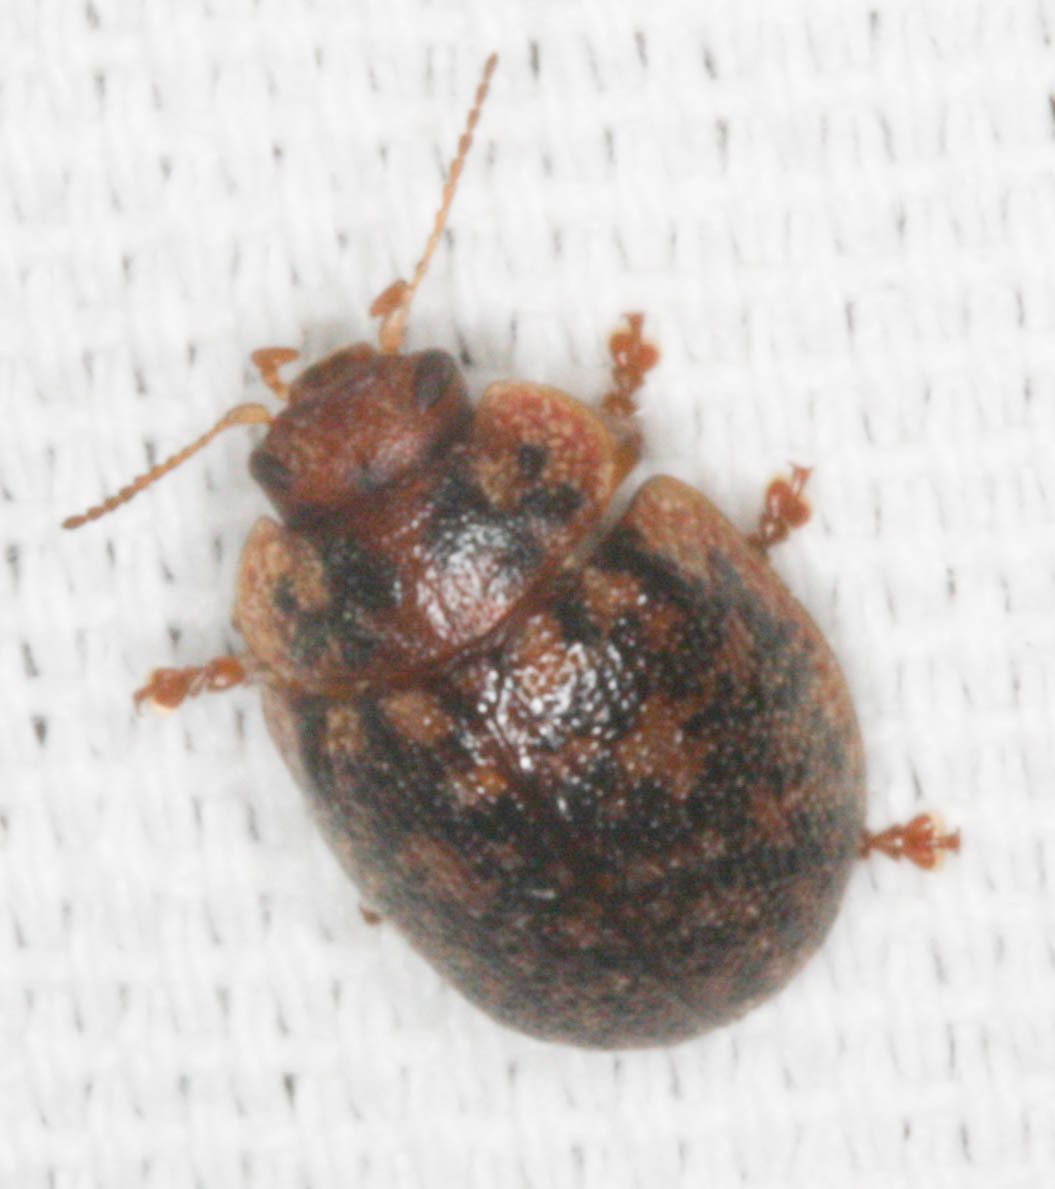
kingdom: Animalia
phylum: Arthropoda
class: Insecta
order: Coleoptera
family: Chrysomelidae
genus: Trachymela
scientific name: Trachymela sloanei
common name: Australian tortoise beetle
